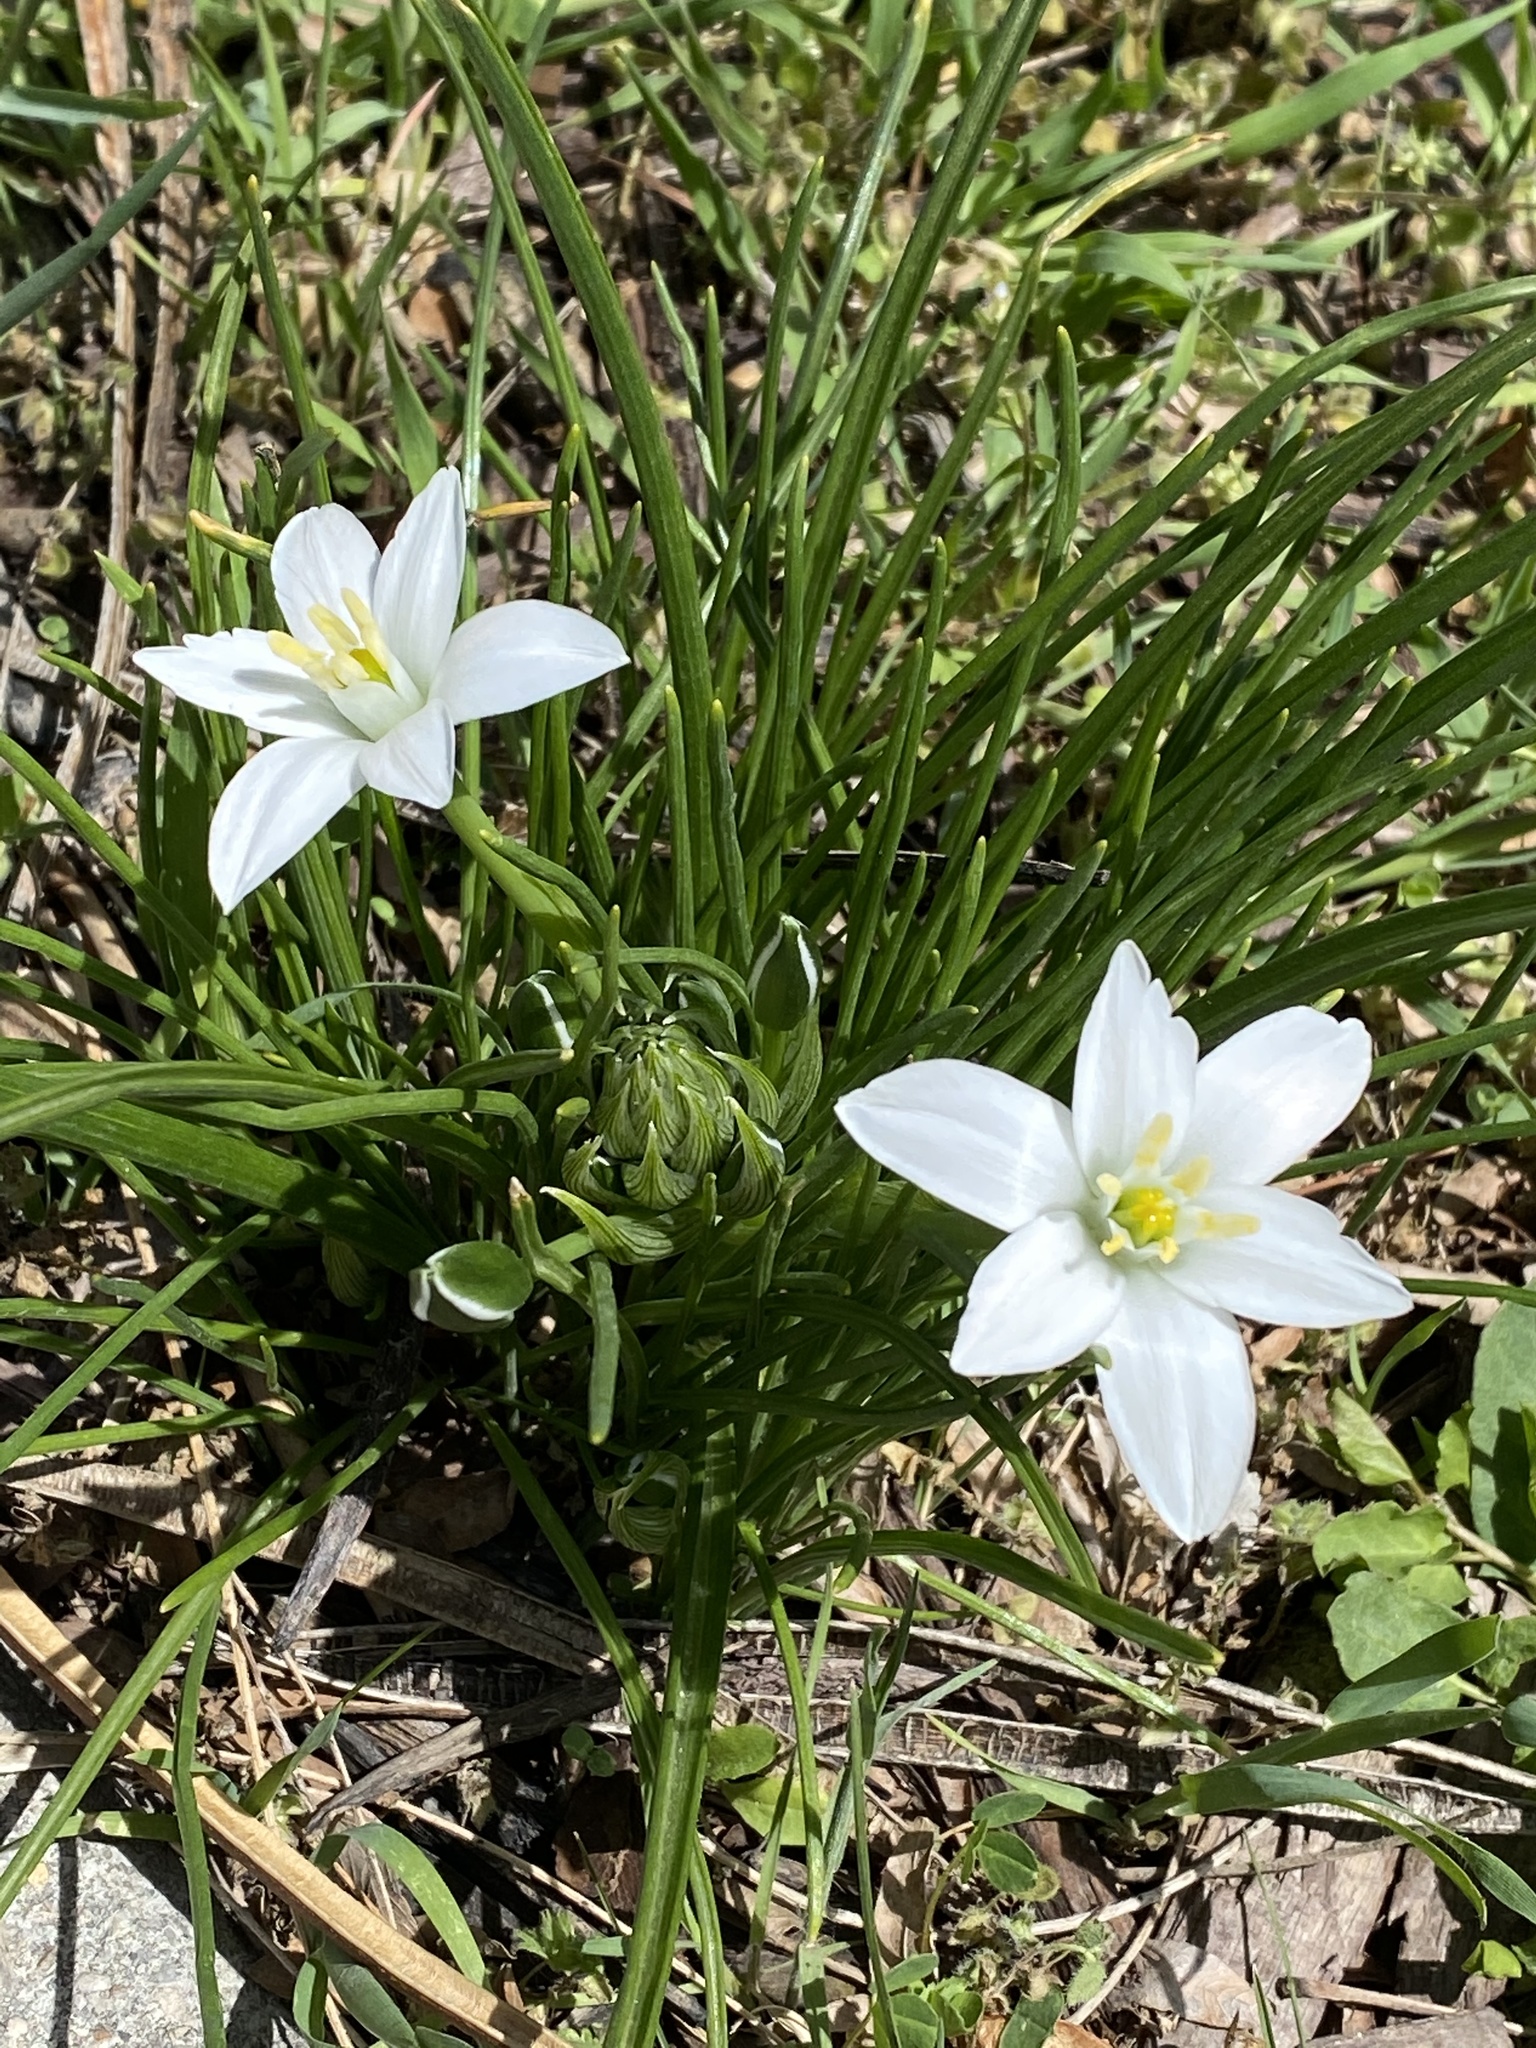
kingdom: Plantae
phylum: Tracheophyta
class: Liliopsida
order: Asparagales
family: Asparagaceae
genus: Ornithogalum
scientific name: Ornithogalum umbellatum
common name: Garden star-of-bethlehem
